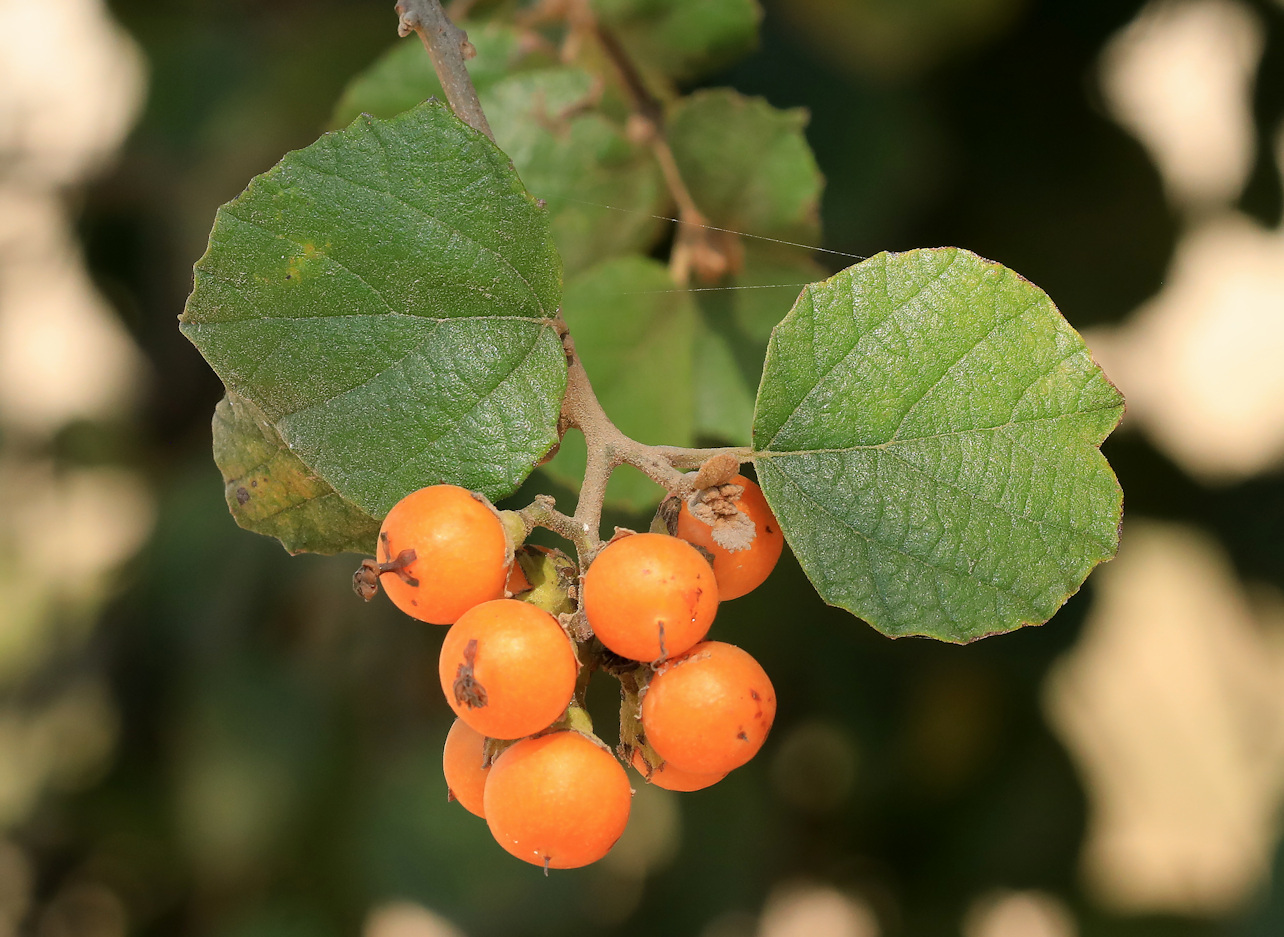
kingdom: Plantae
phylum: Tracheophyta
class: Magnoliopsida
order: Boraginales
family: Cordiaceae
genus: Cordia
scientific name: Cordia monoica
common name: Snot berry
